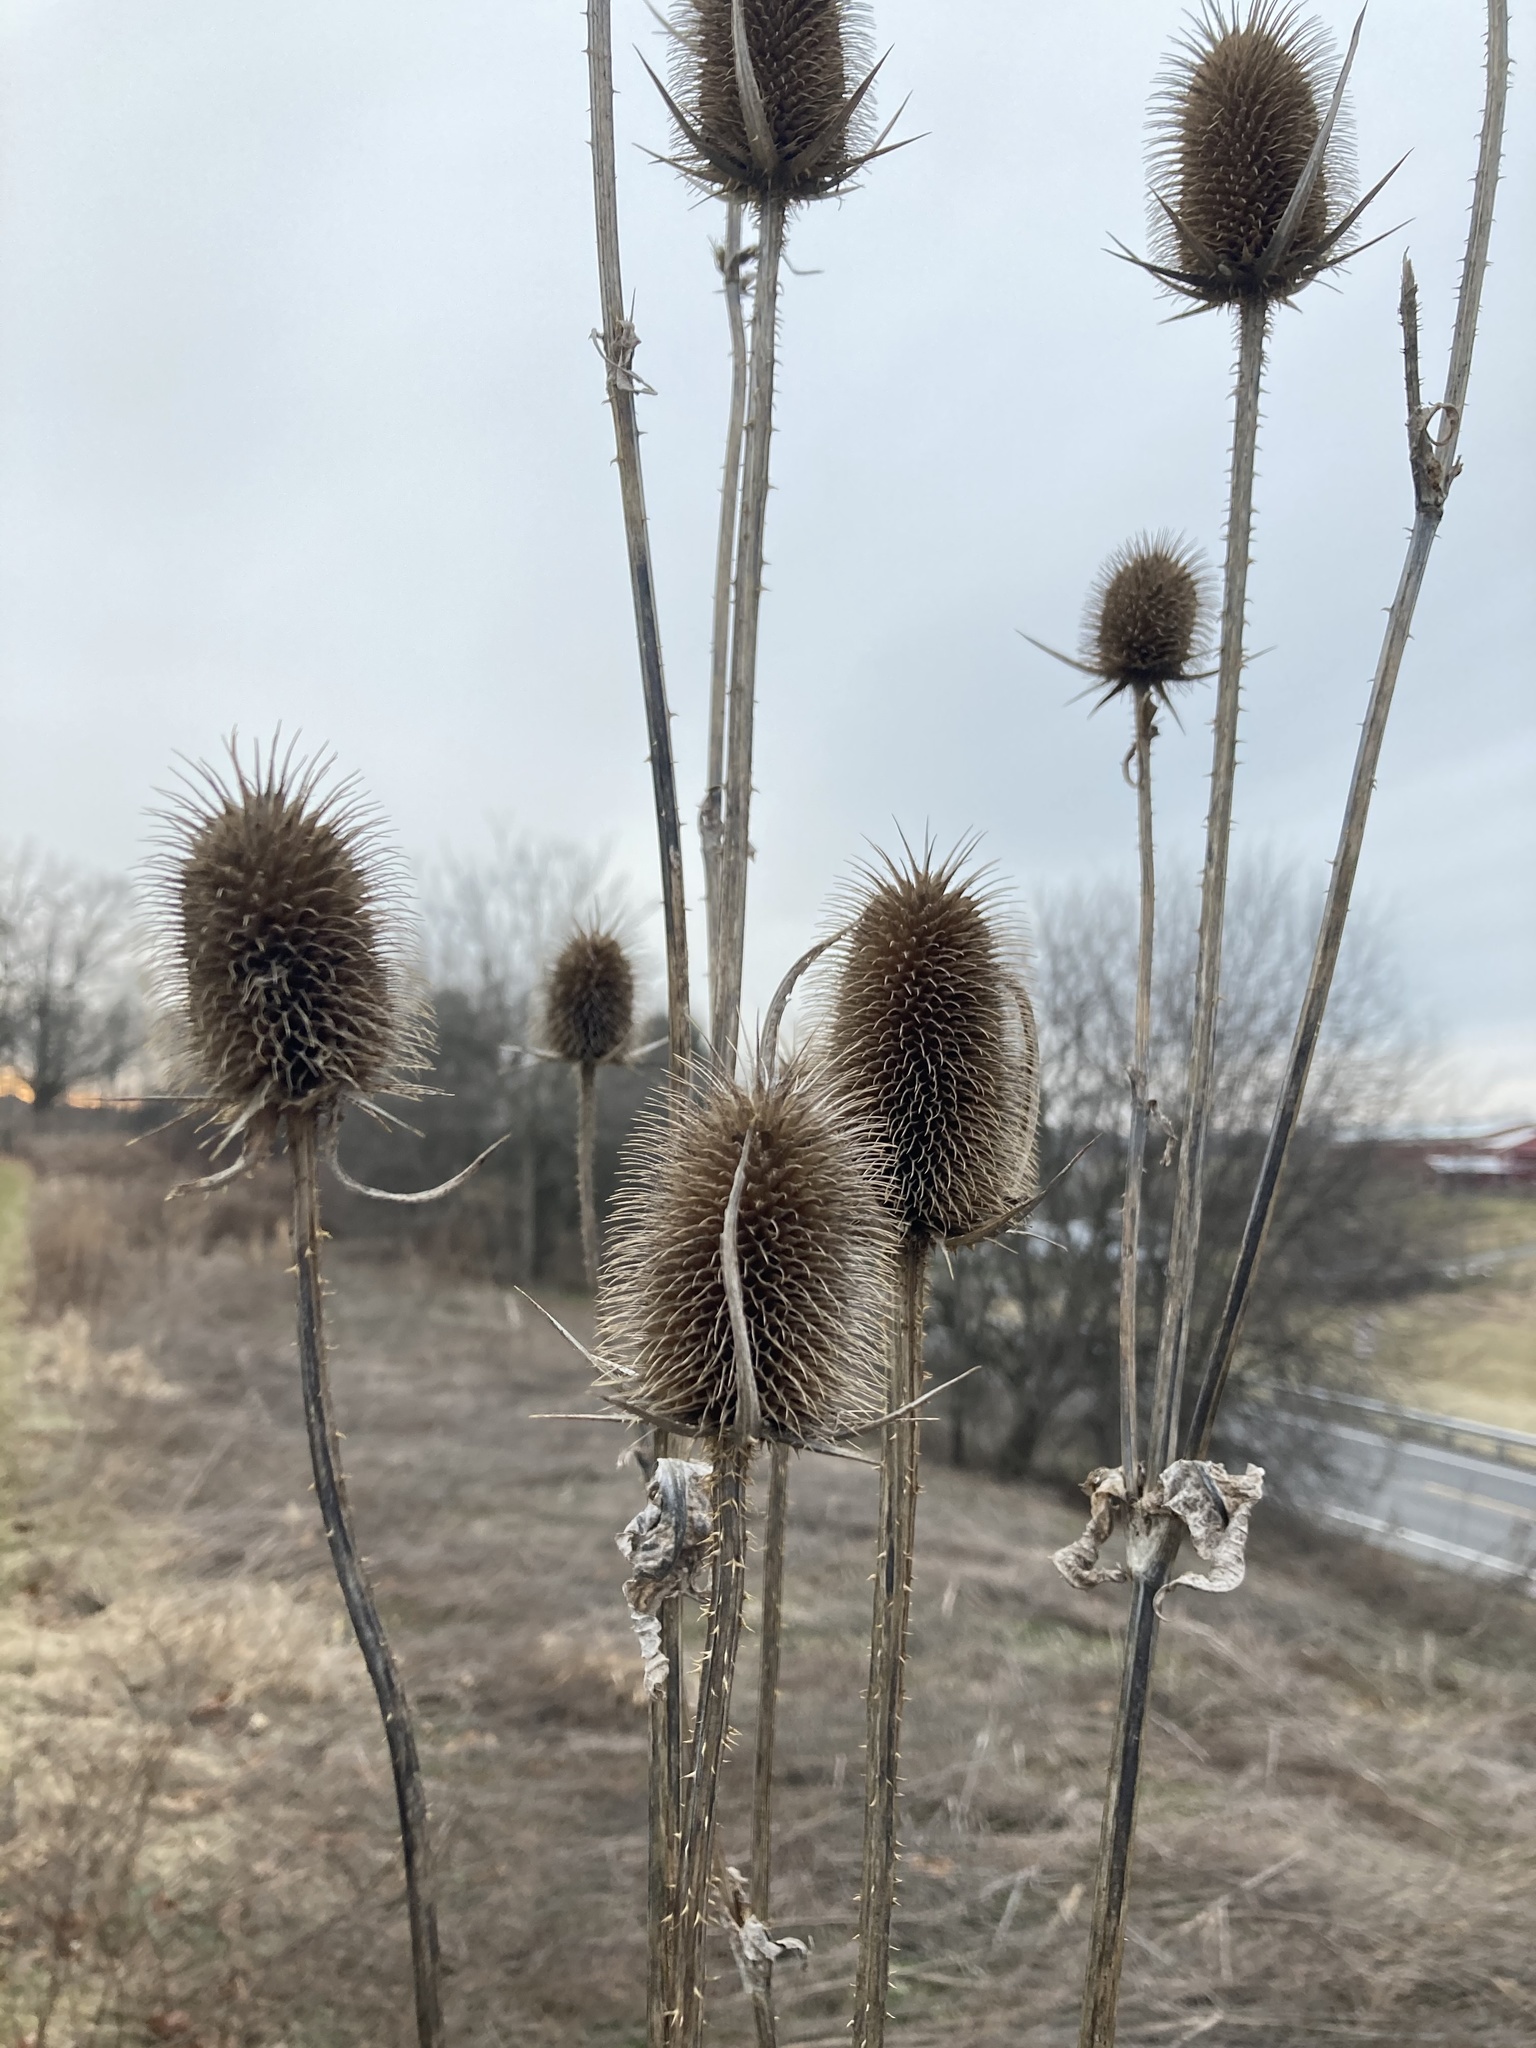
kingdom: Plantae
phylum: Tracheophyta
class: Magnoliopsida
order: Dipsacales
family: Caprifoliaceae
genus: Dipsacus
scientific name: Dipsacus laciniatus
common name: Cut-leaved teasel
